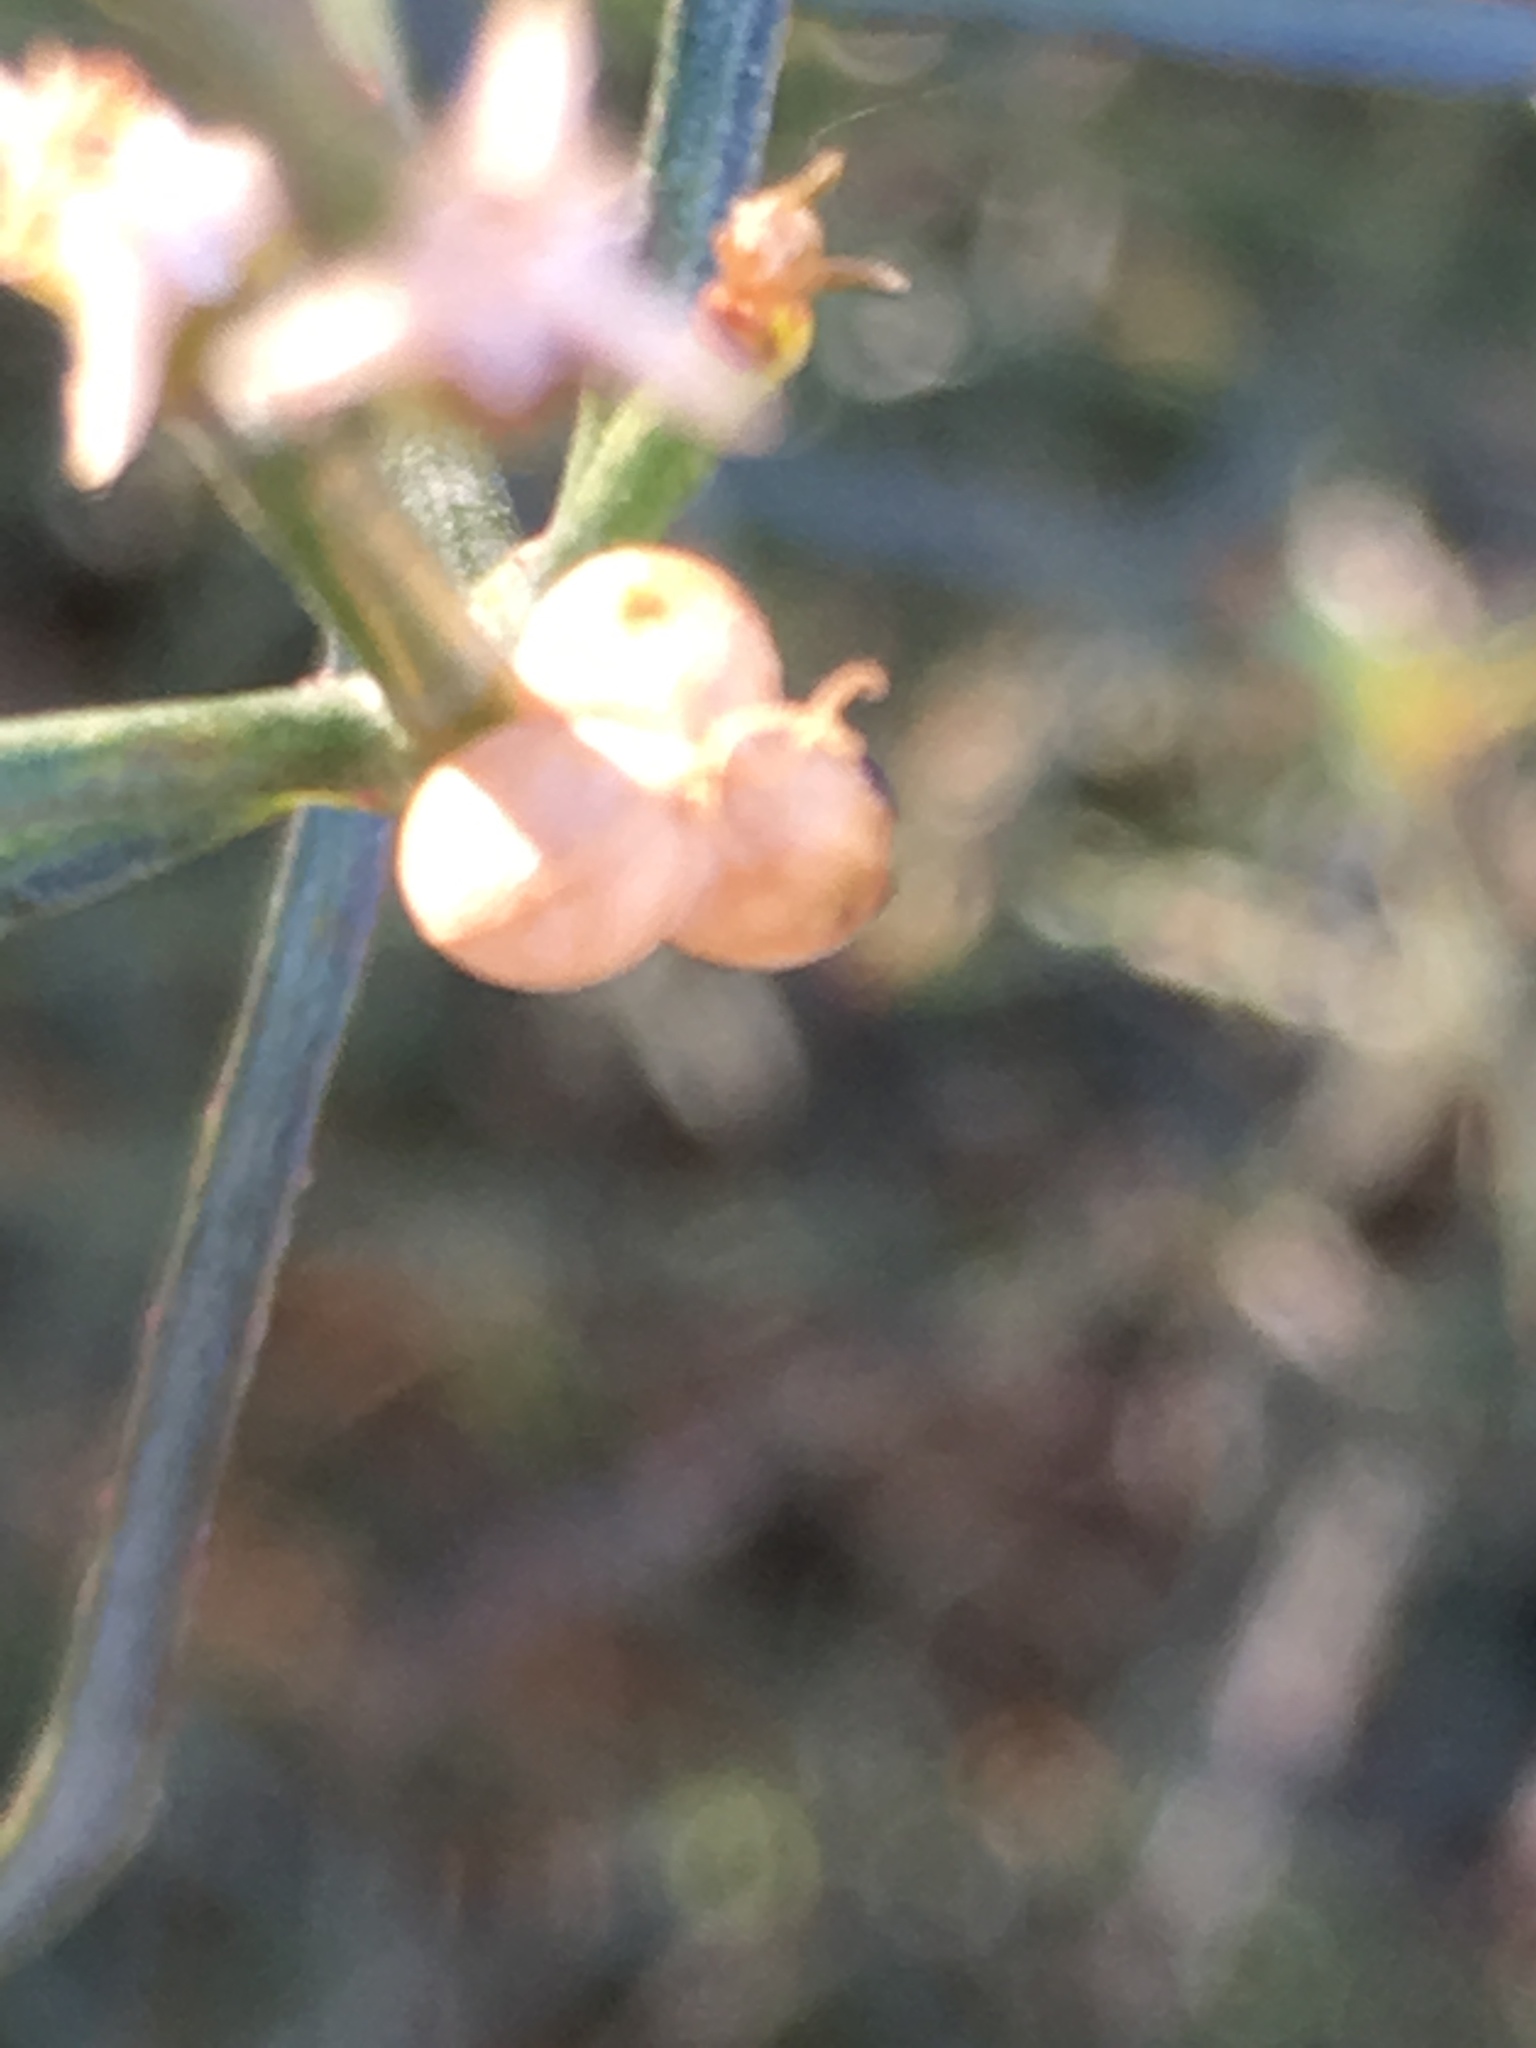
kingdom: Plantae
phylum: Tracheophyta
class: Magnoliopsida
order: Malpighiales
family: Euphorbiaceae
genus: Stillingia
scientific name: Stillingia linearifolia
